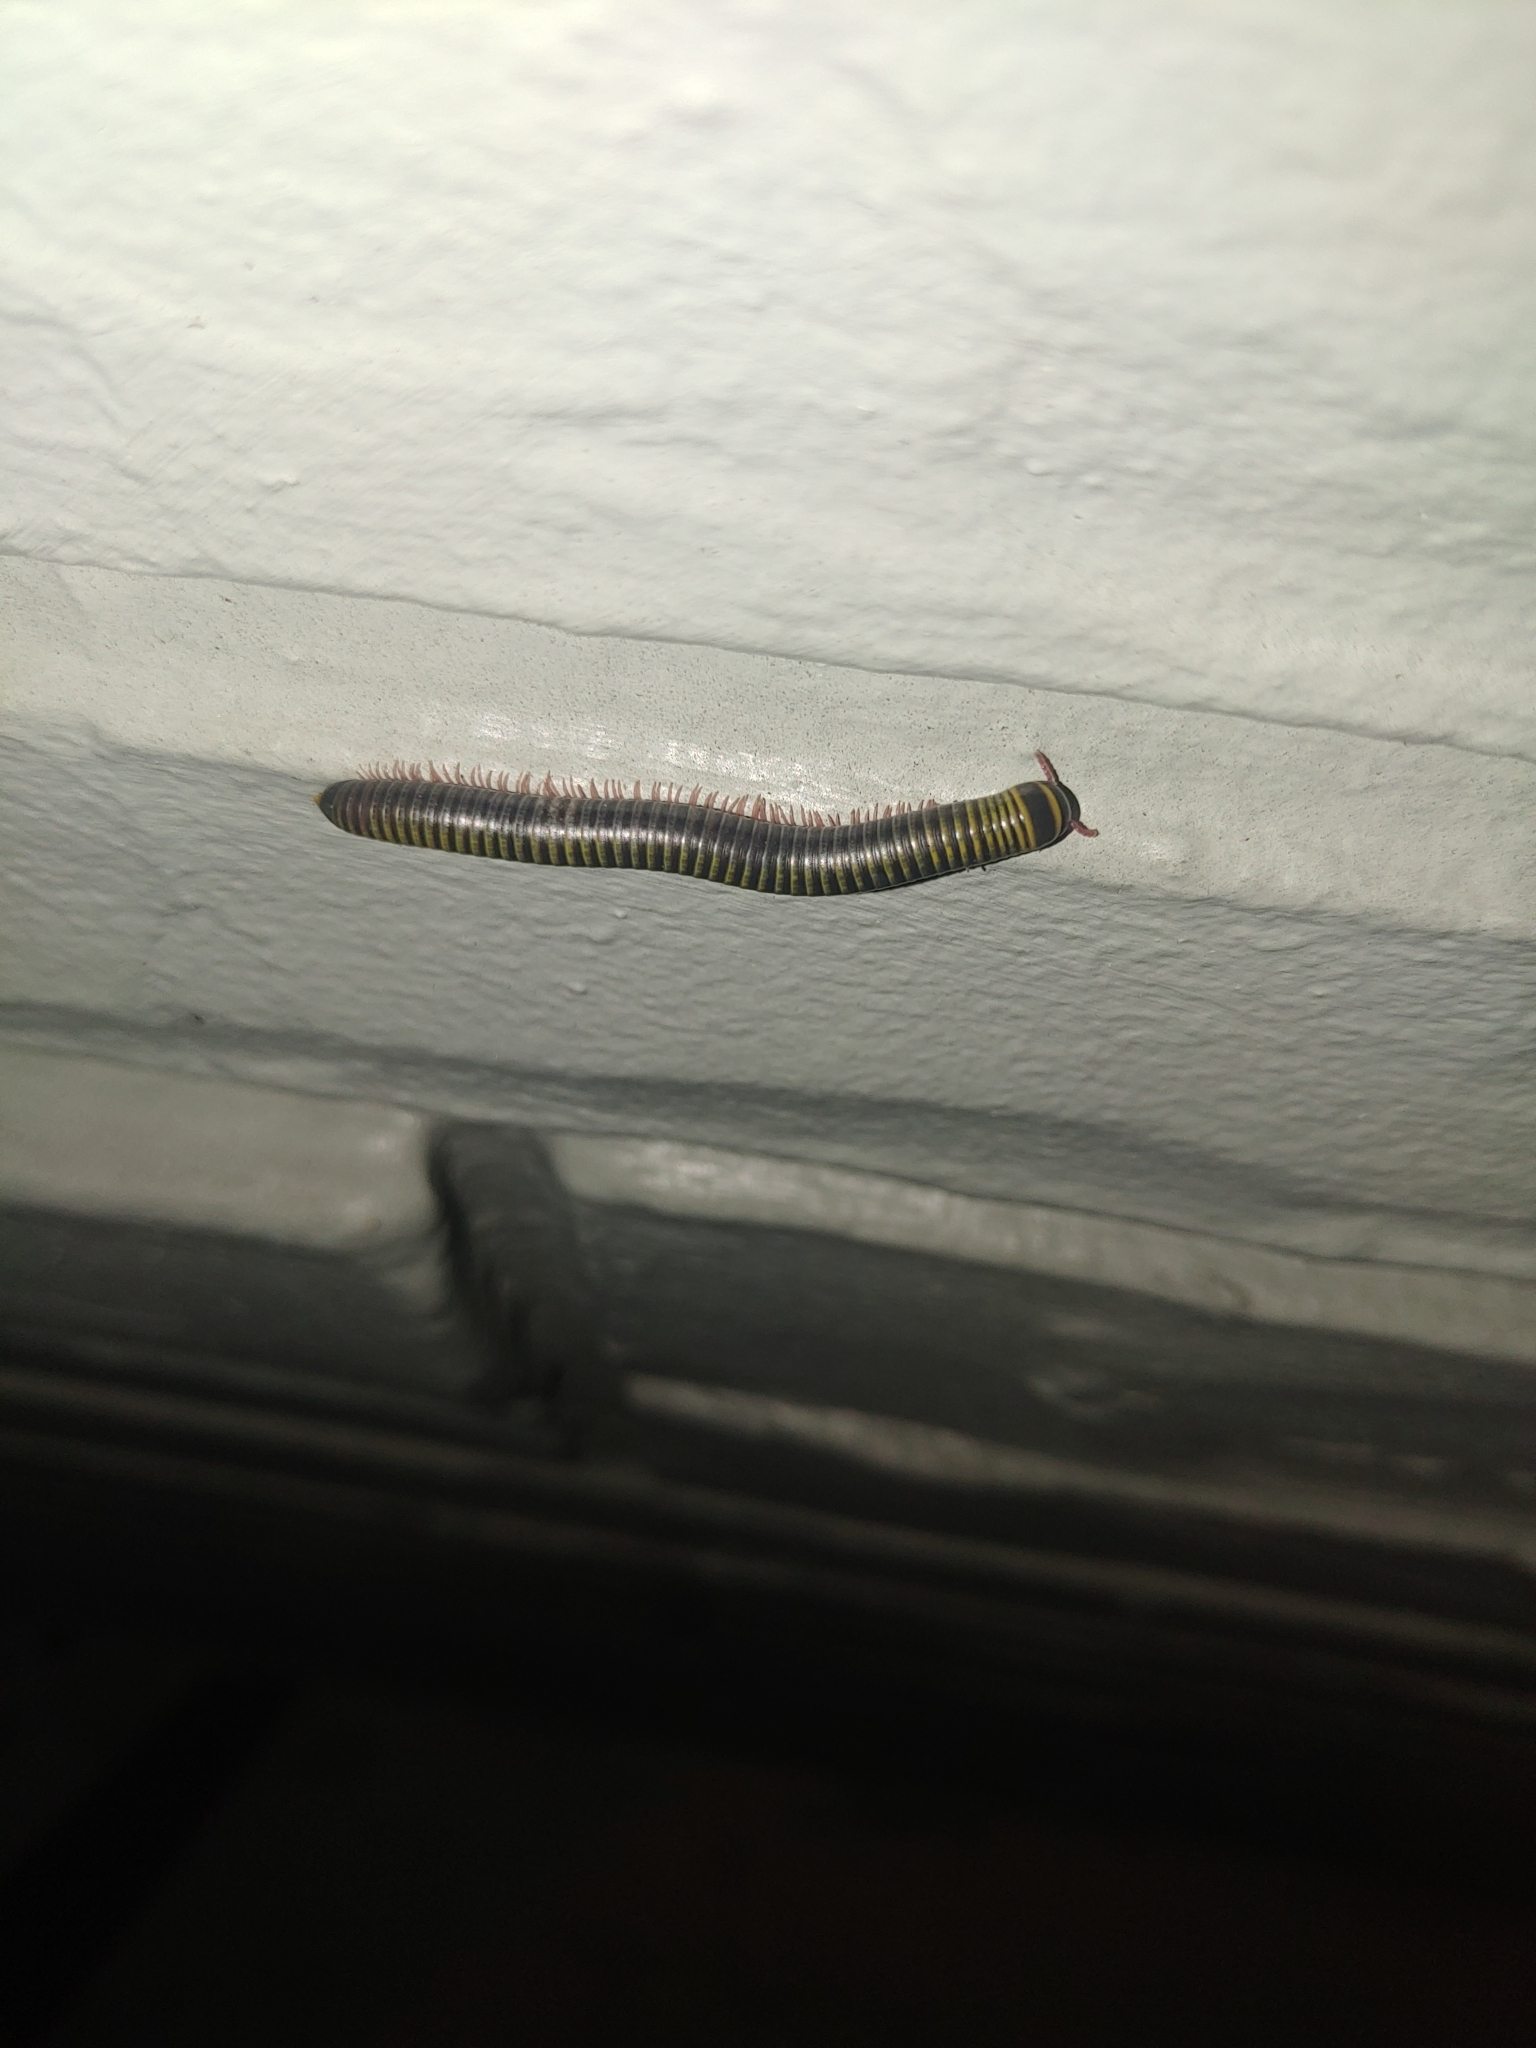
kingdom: Animalia
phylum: Arthropoda
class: Diplopoda
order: Spirobolida
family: Rhinocricidae
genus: Anadenobolus
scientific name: Anadenobolus monilicornis
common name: Caribbean millipede
